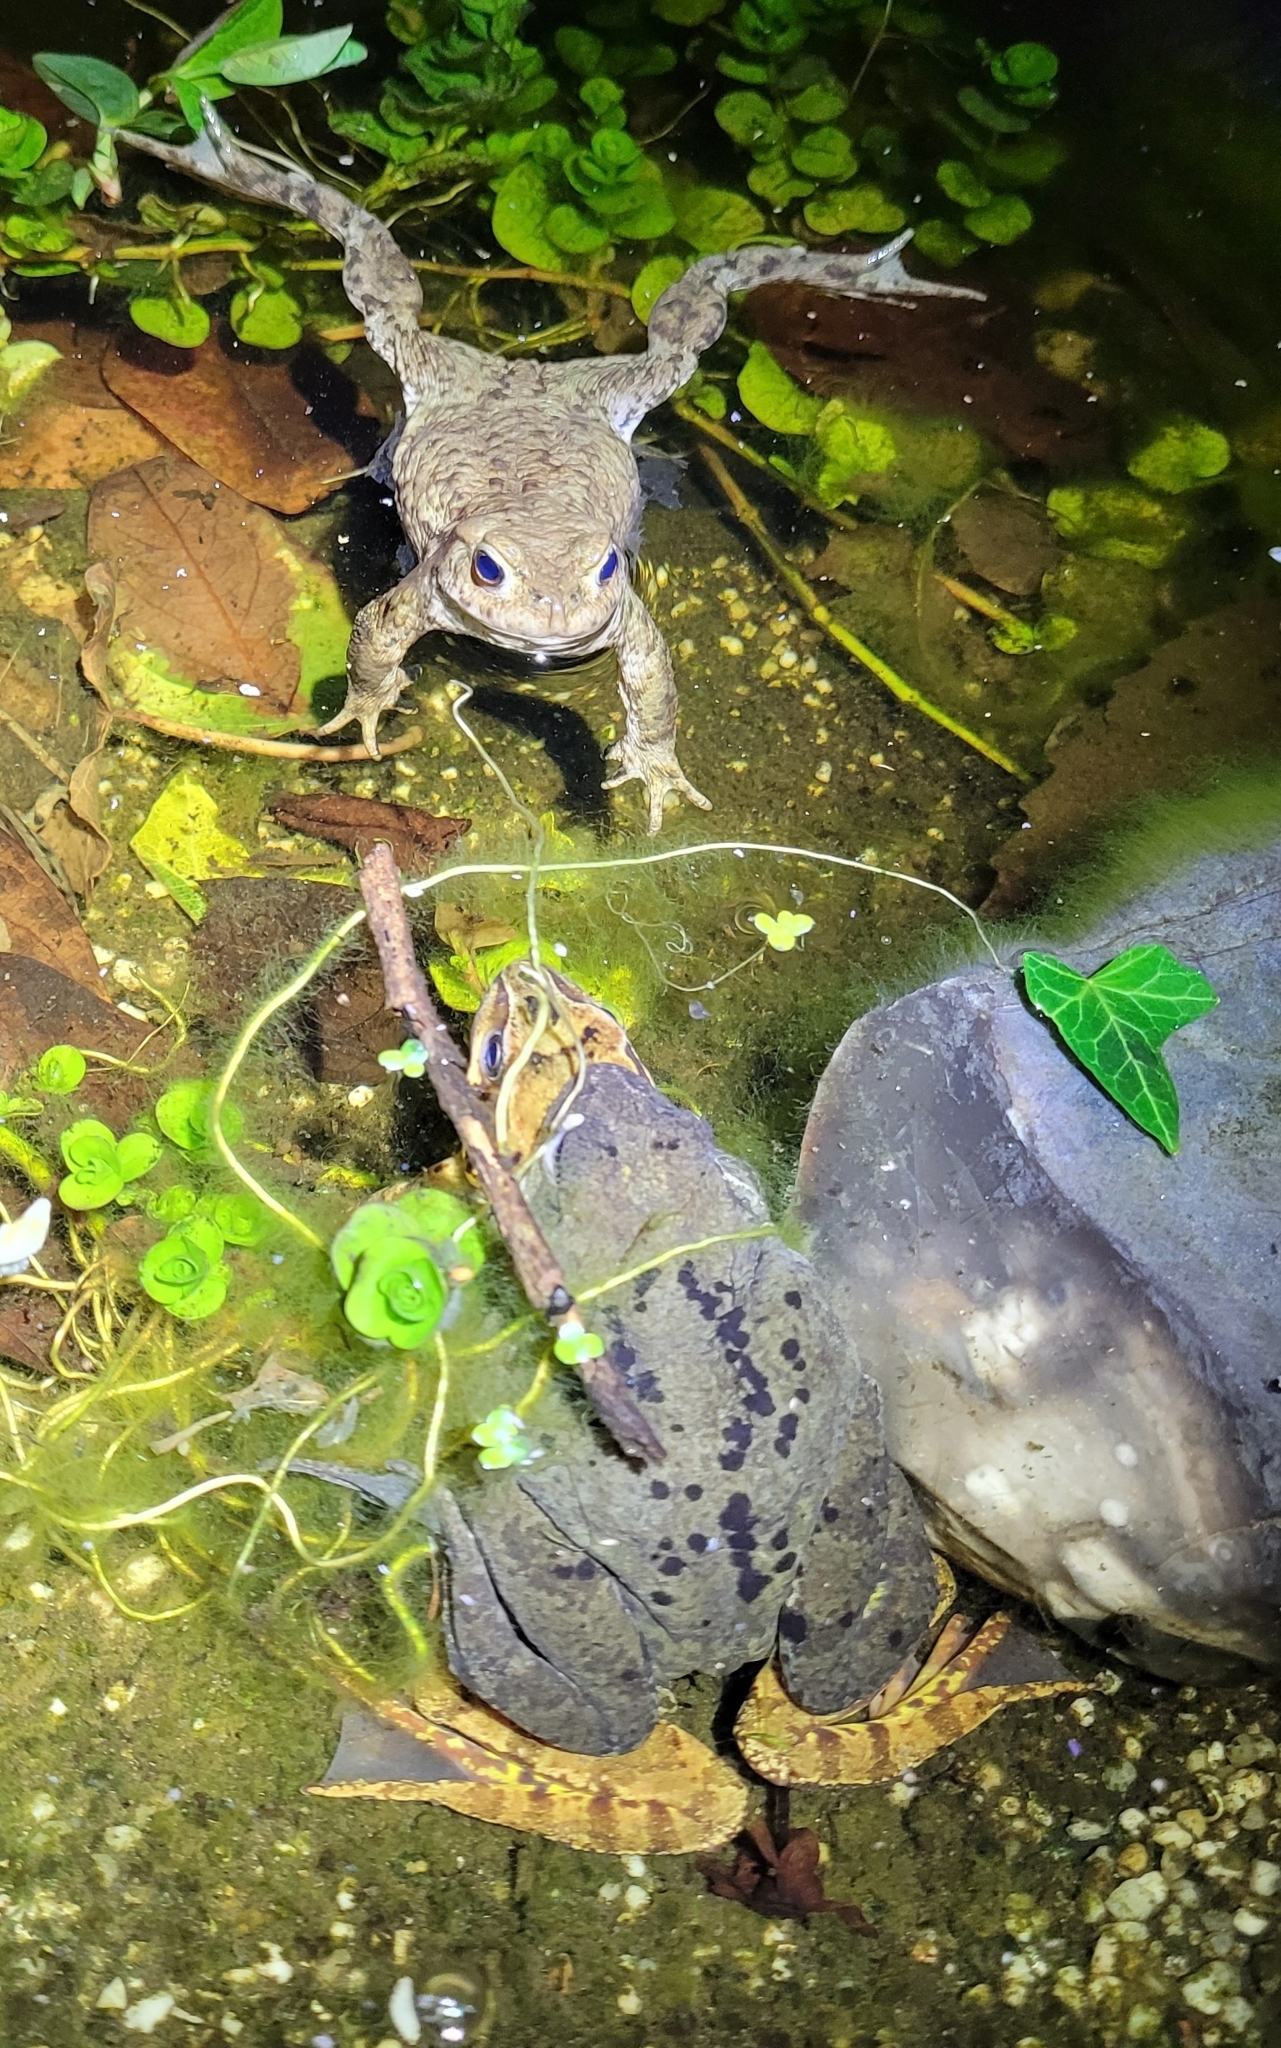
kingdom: Animalia
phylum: Chordata
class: Amphibia
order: Anura
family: Ranidae
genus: Rana
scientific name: Rana temporaria
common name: Common frog
